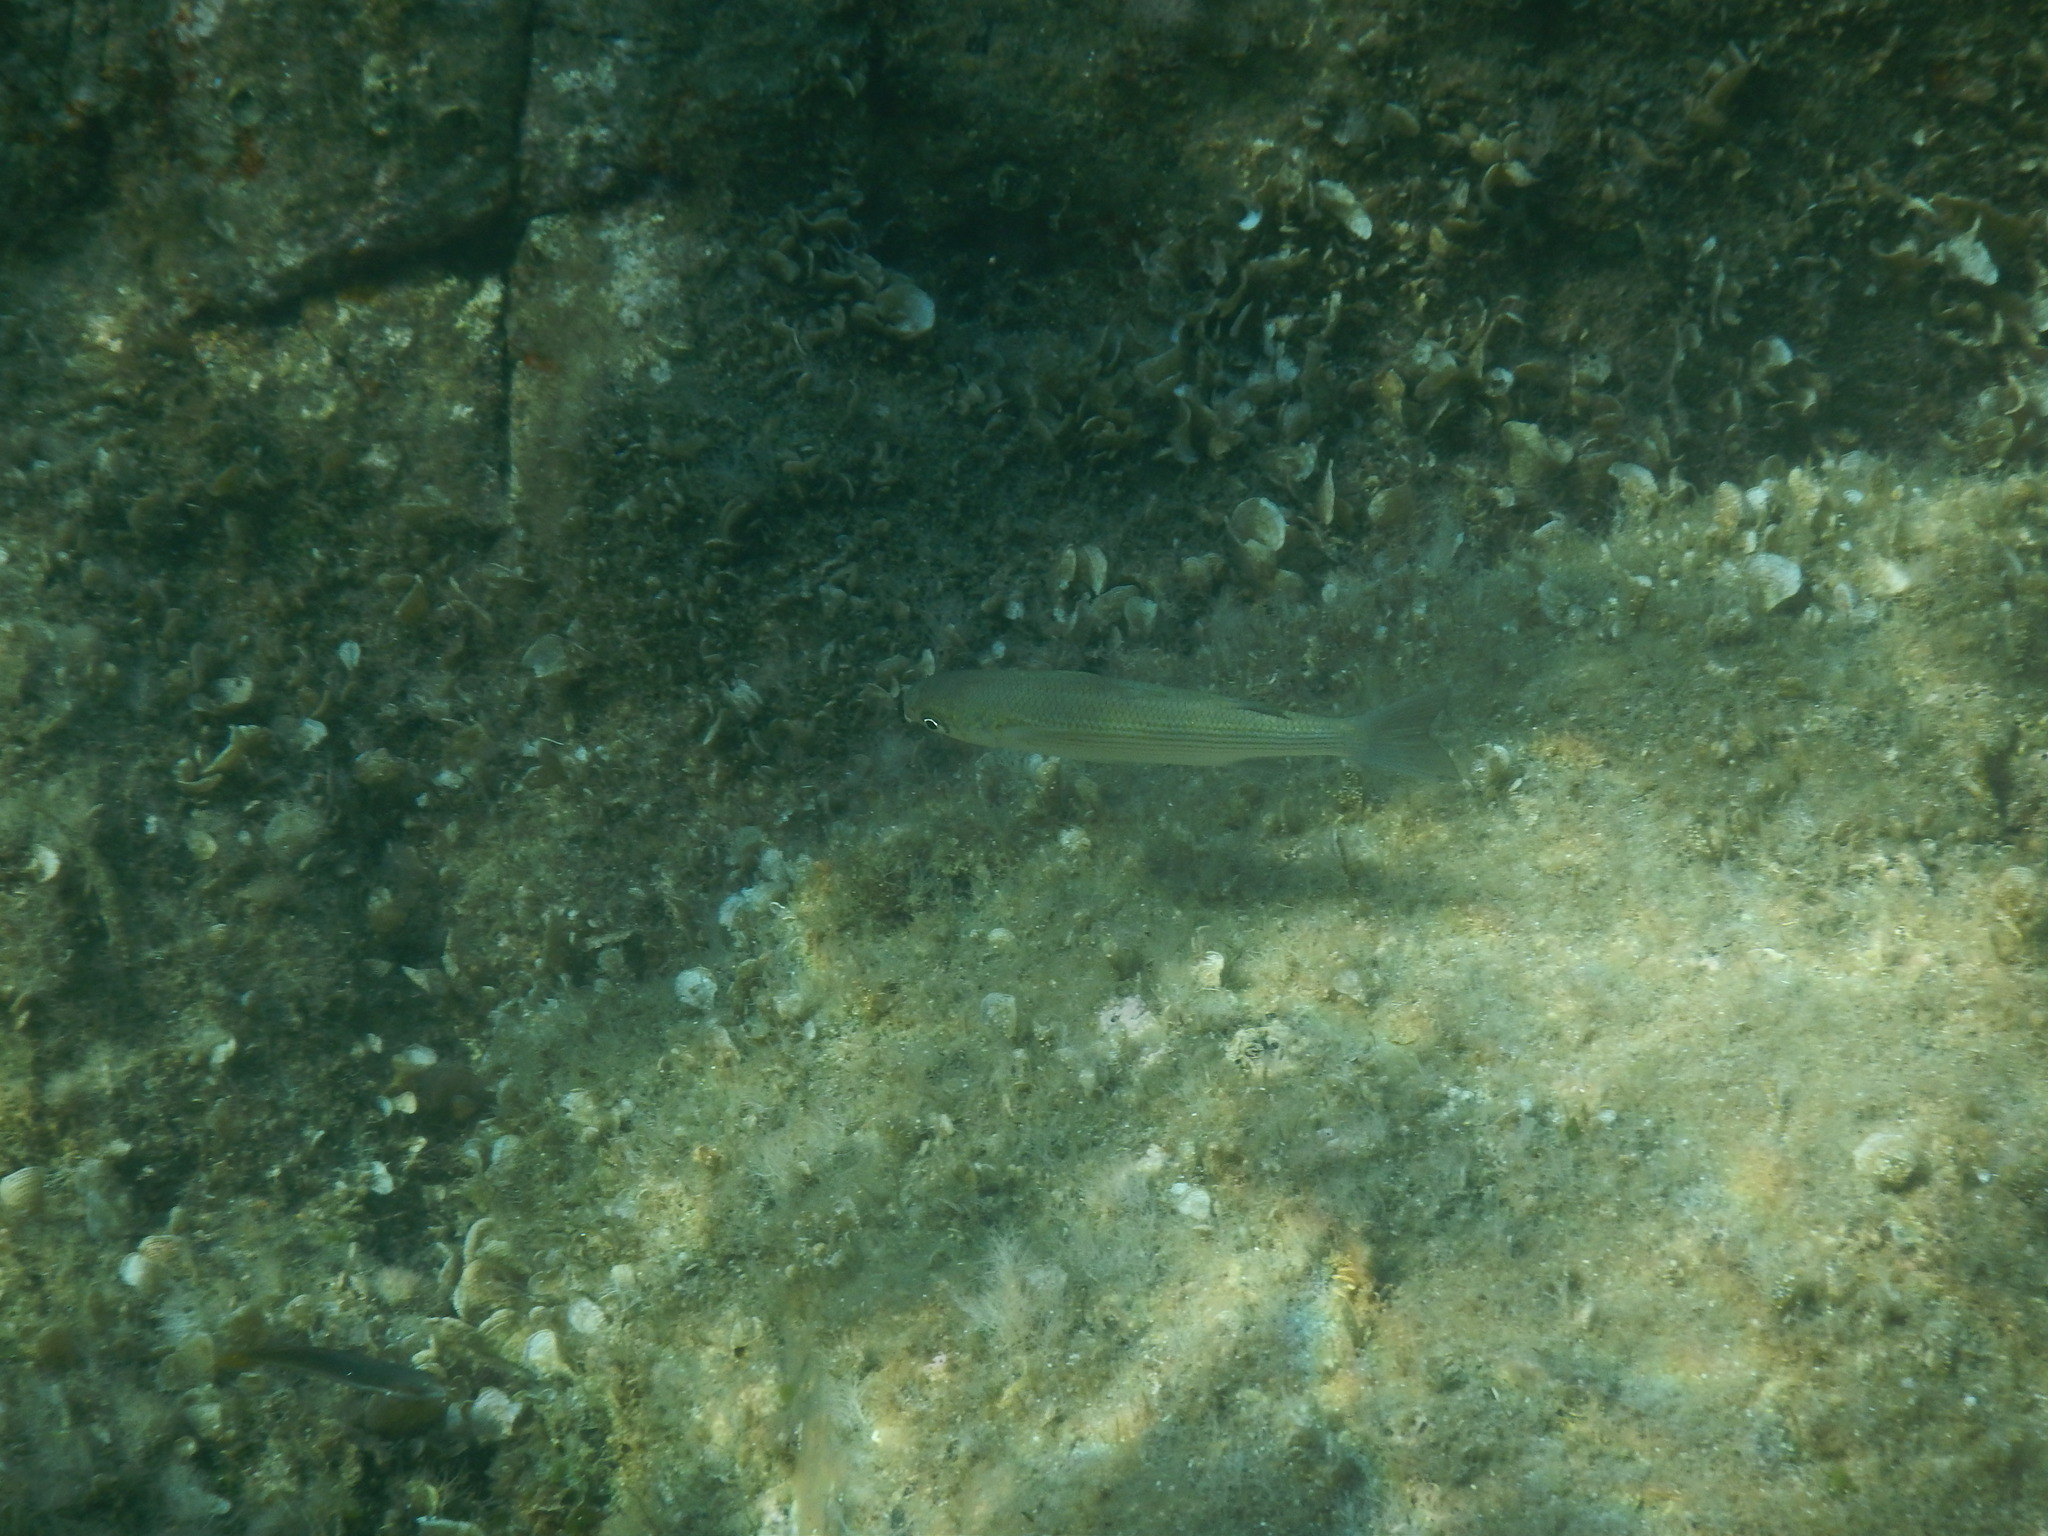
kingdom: Animalia
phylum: Chordata
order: Mugiliformes
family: Mugilidae
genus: Oedalechilus
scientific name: Oedalechilus labeo
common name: Boxlip mullet
